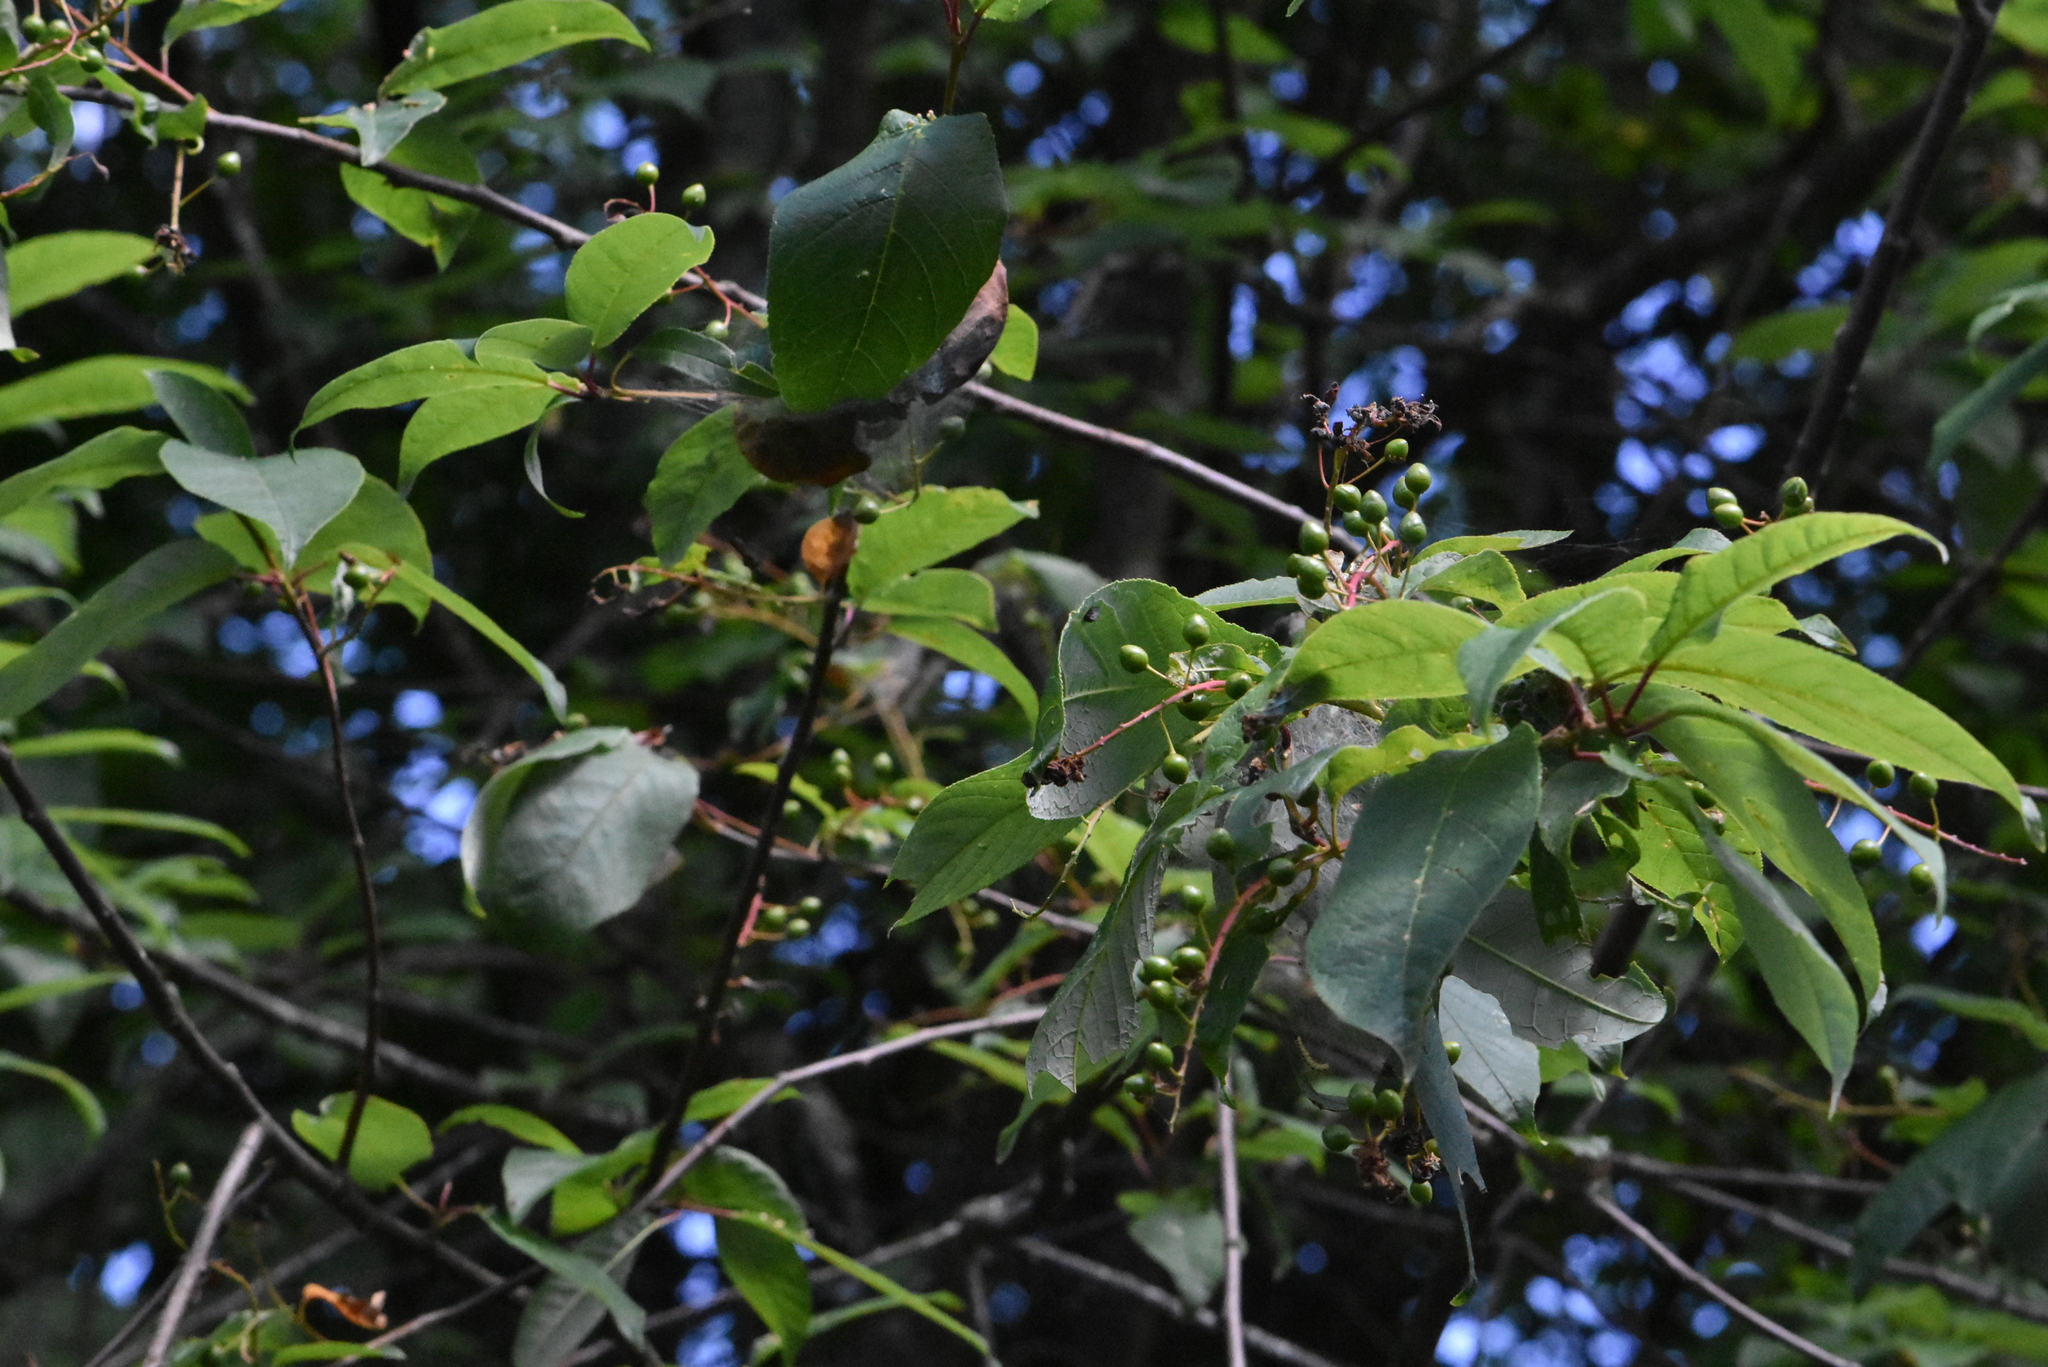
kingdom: Plantae
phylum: Tracheophyta
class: Magnoliopsida
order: Rosales
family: Rosaceae
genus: Prunus
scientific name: Prunus padus
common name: Bird cherry
